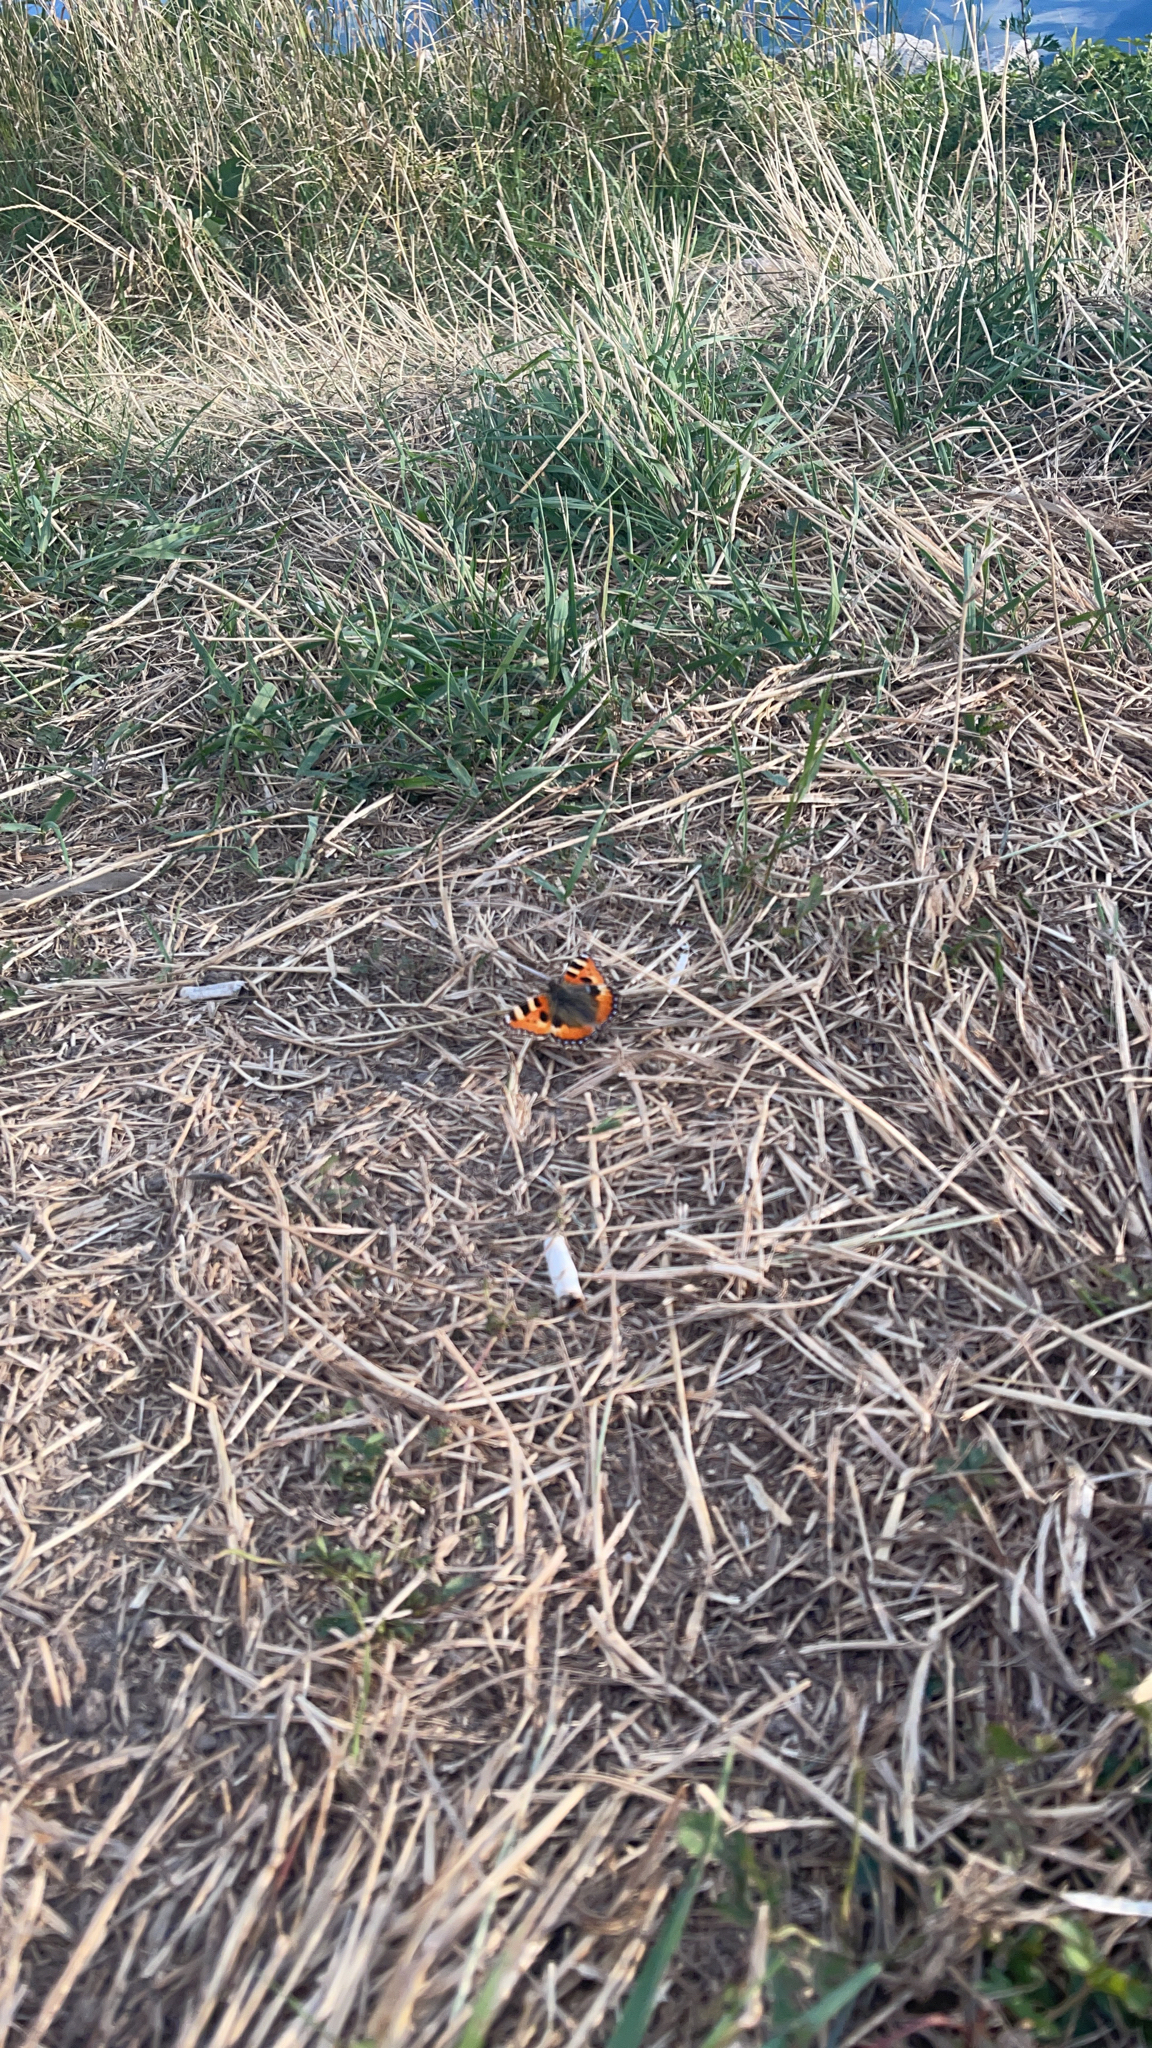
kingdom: Animalia
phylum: Arthropoda
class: Insecta
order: Lepidoptera
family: Nymphalidae
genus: Aglais
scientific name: Aglais urticae
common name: Small tortoiseshell
